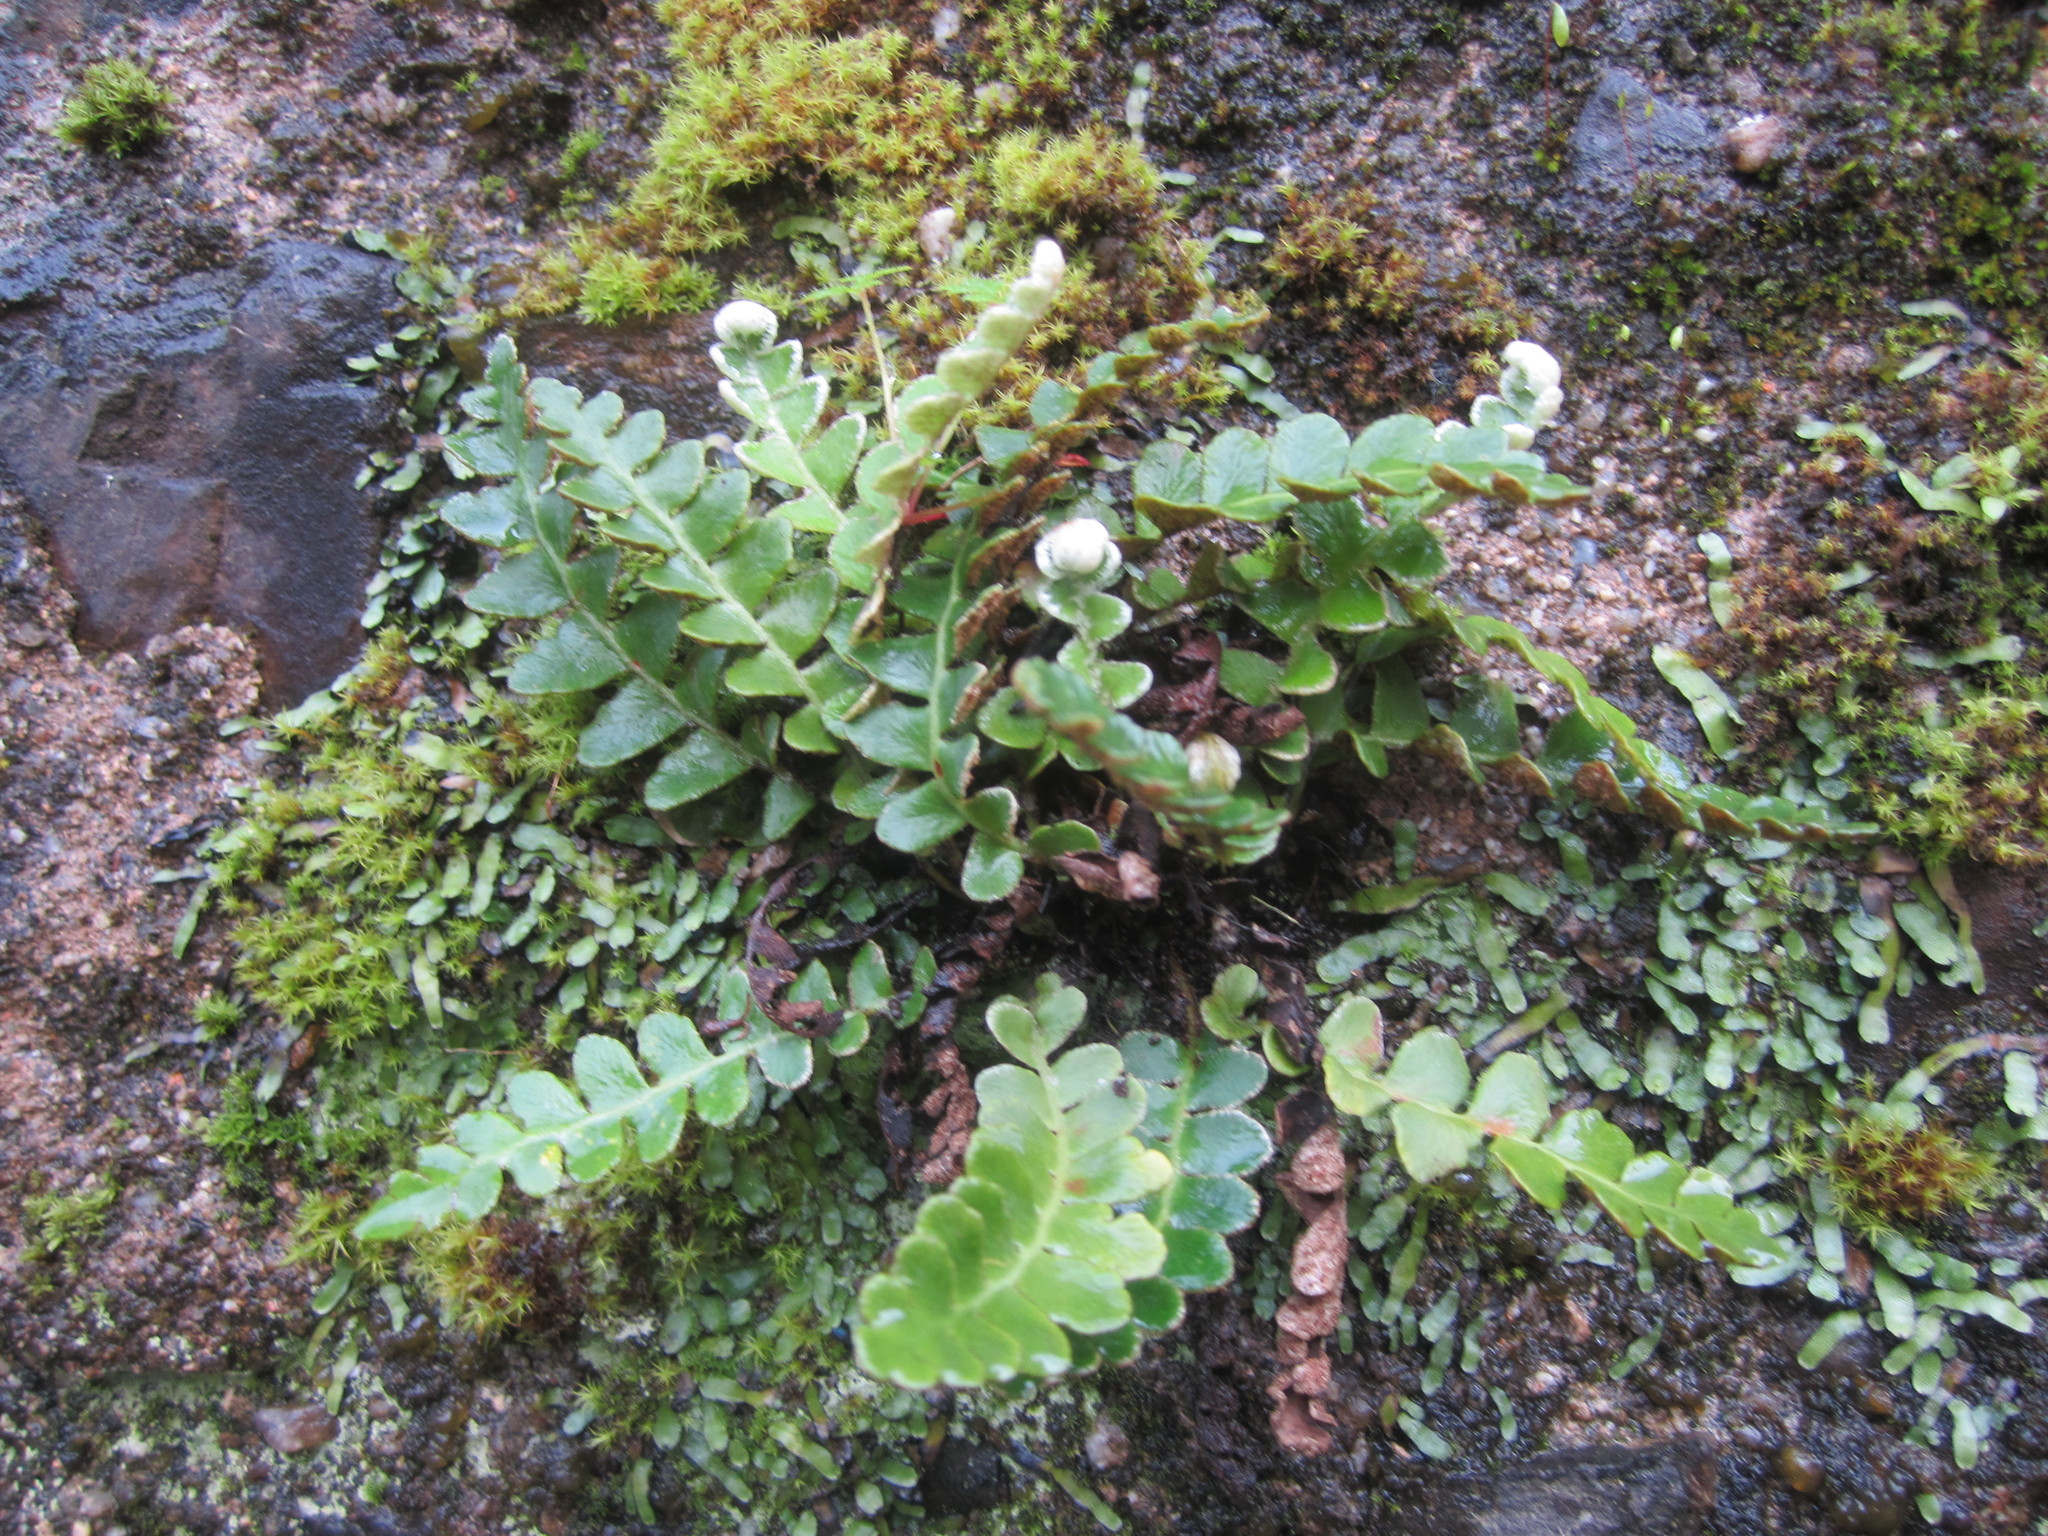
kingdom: Plantae
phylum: Tracheophyta
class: Polypodiopsida
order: Polypodiales
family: Aspleniaceae
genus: Asplenium
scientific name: Asplenium ceterach
